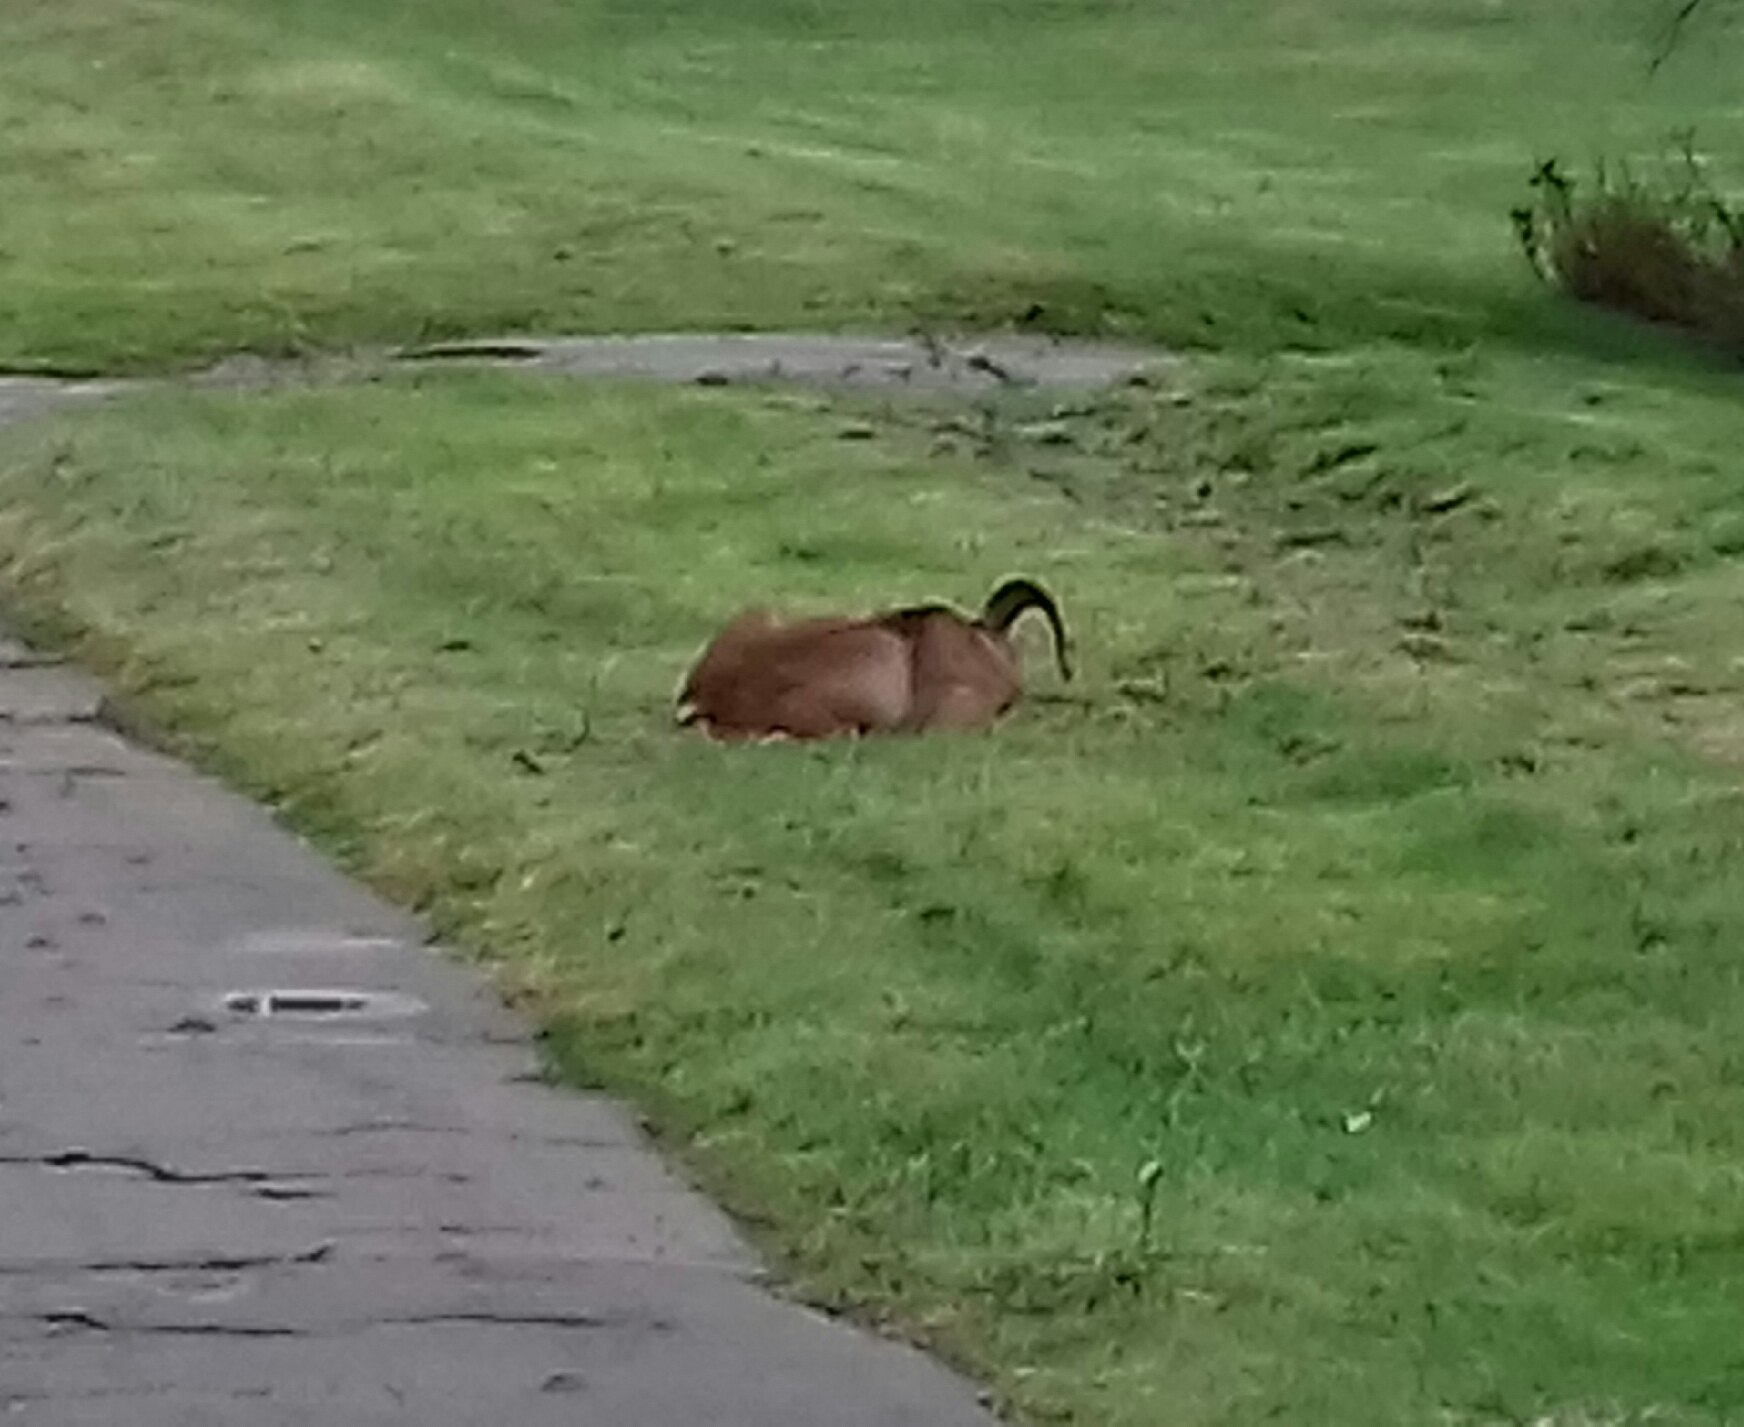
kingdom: Animalia
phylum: Chordata
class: Mammalia
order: Artiodactyla
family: Bovidae
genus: Ovis
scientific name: Ovis aries
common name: Domestic sheep
